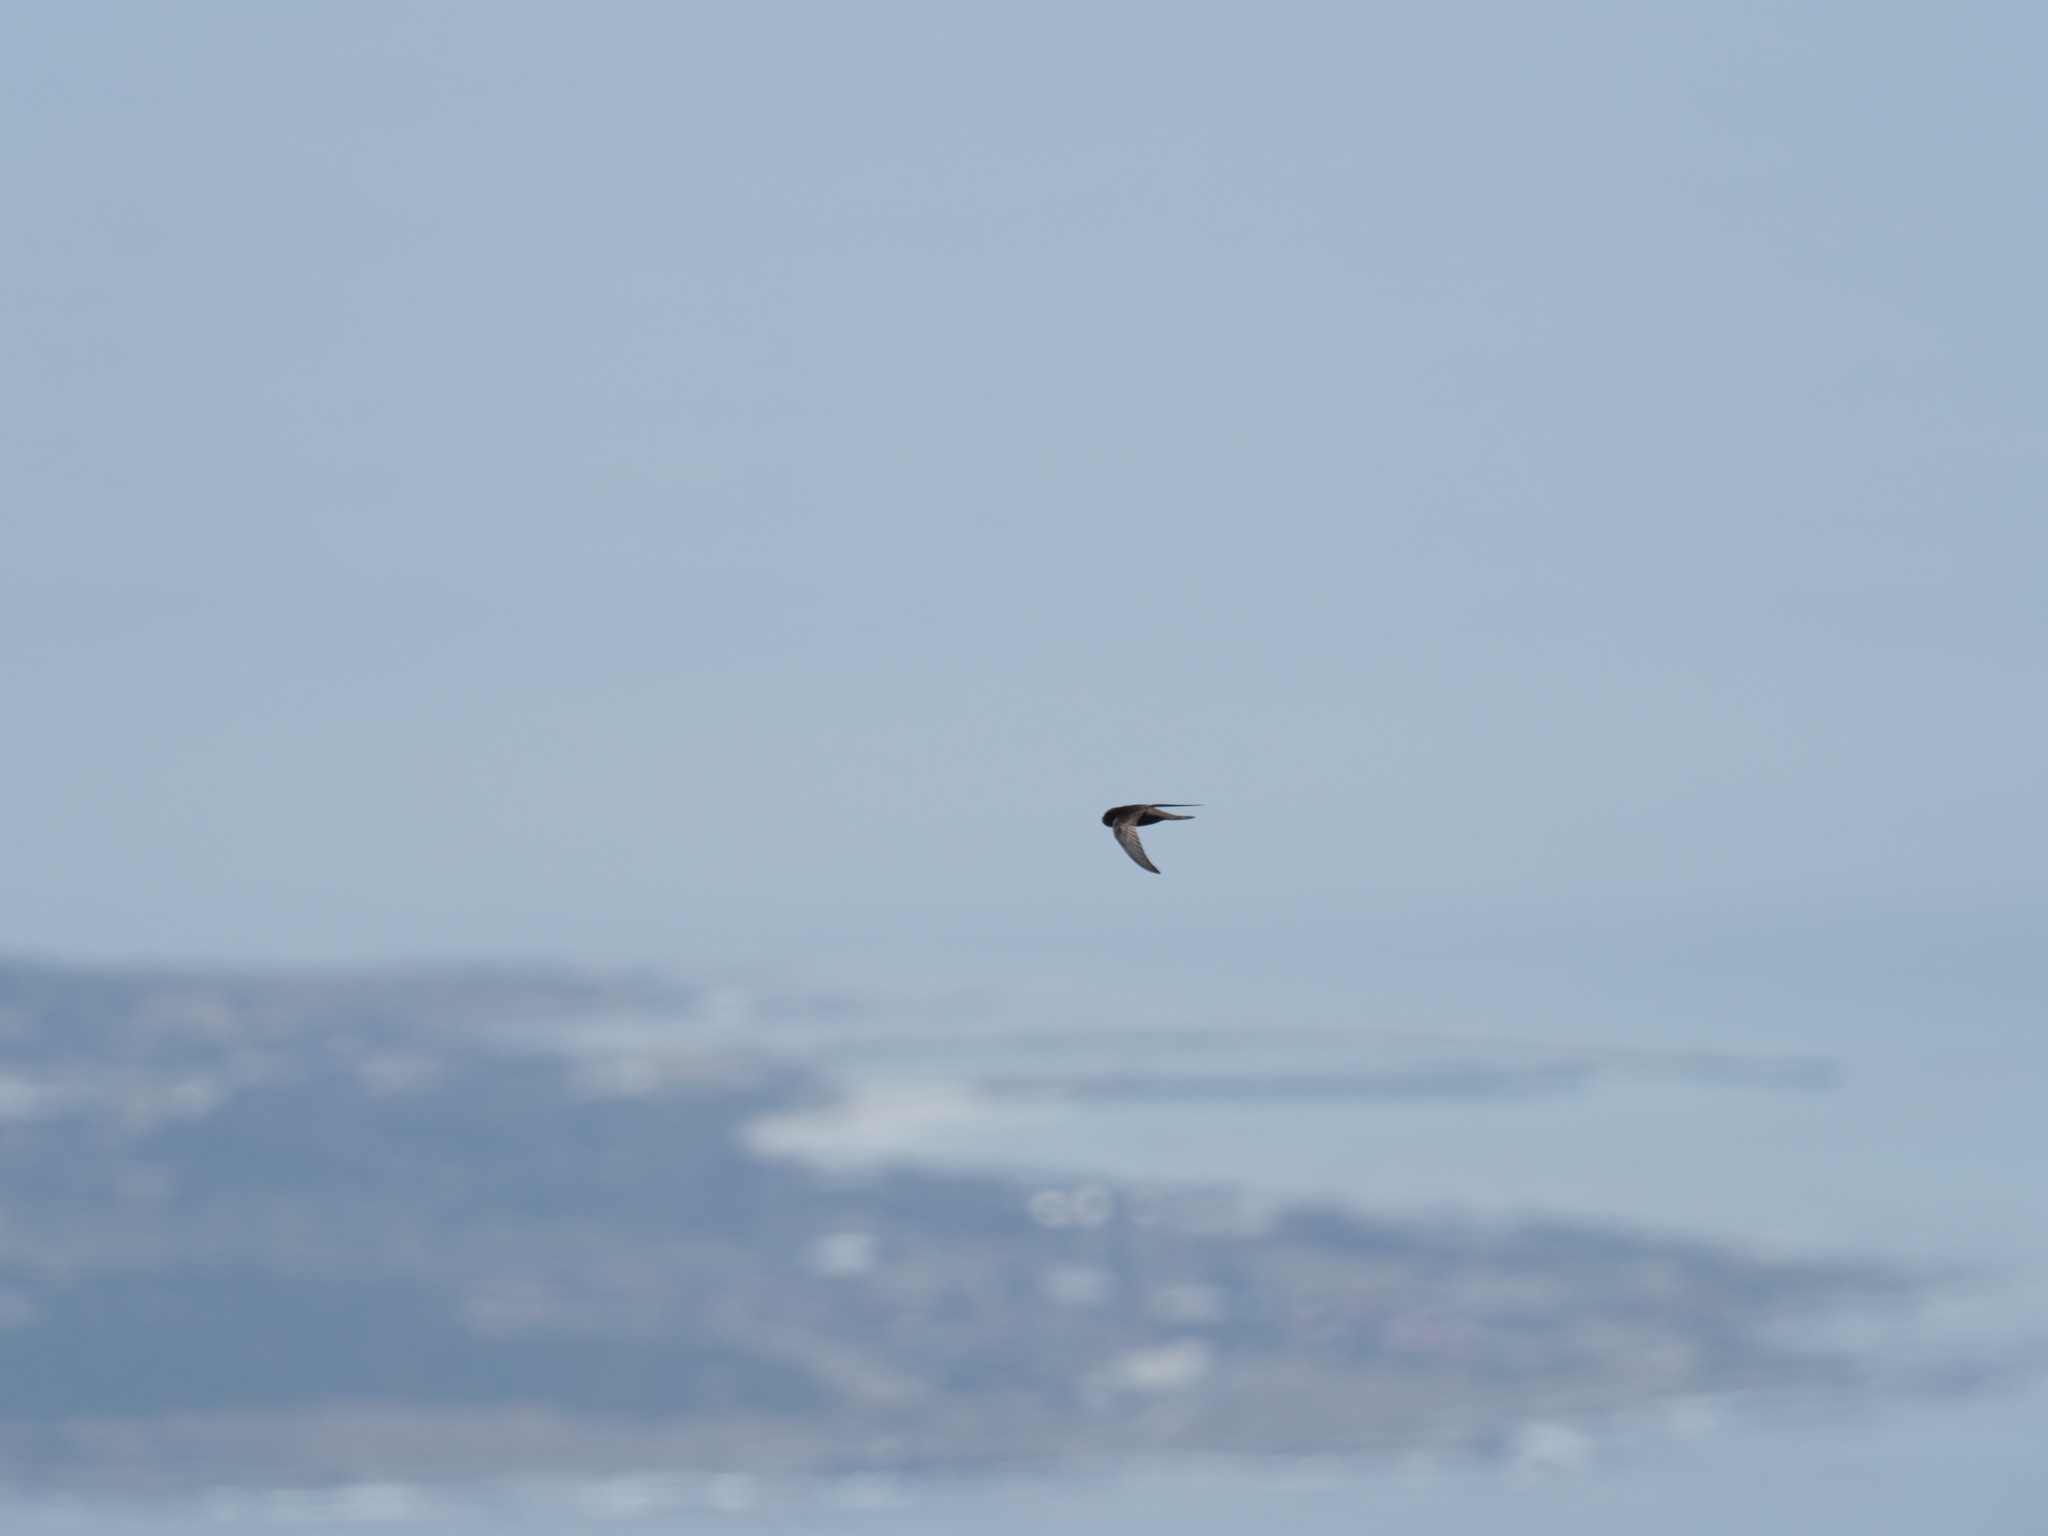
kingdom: Animalia
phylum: Chordata
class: Aves
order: Apodiformes
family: Apodidae
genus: Apus
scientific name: Apus barbatus
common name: African black swift
